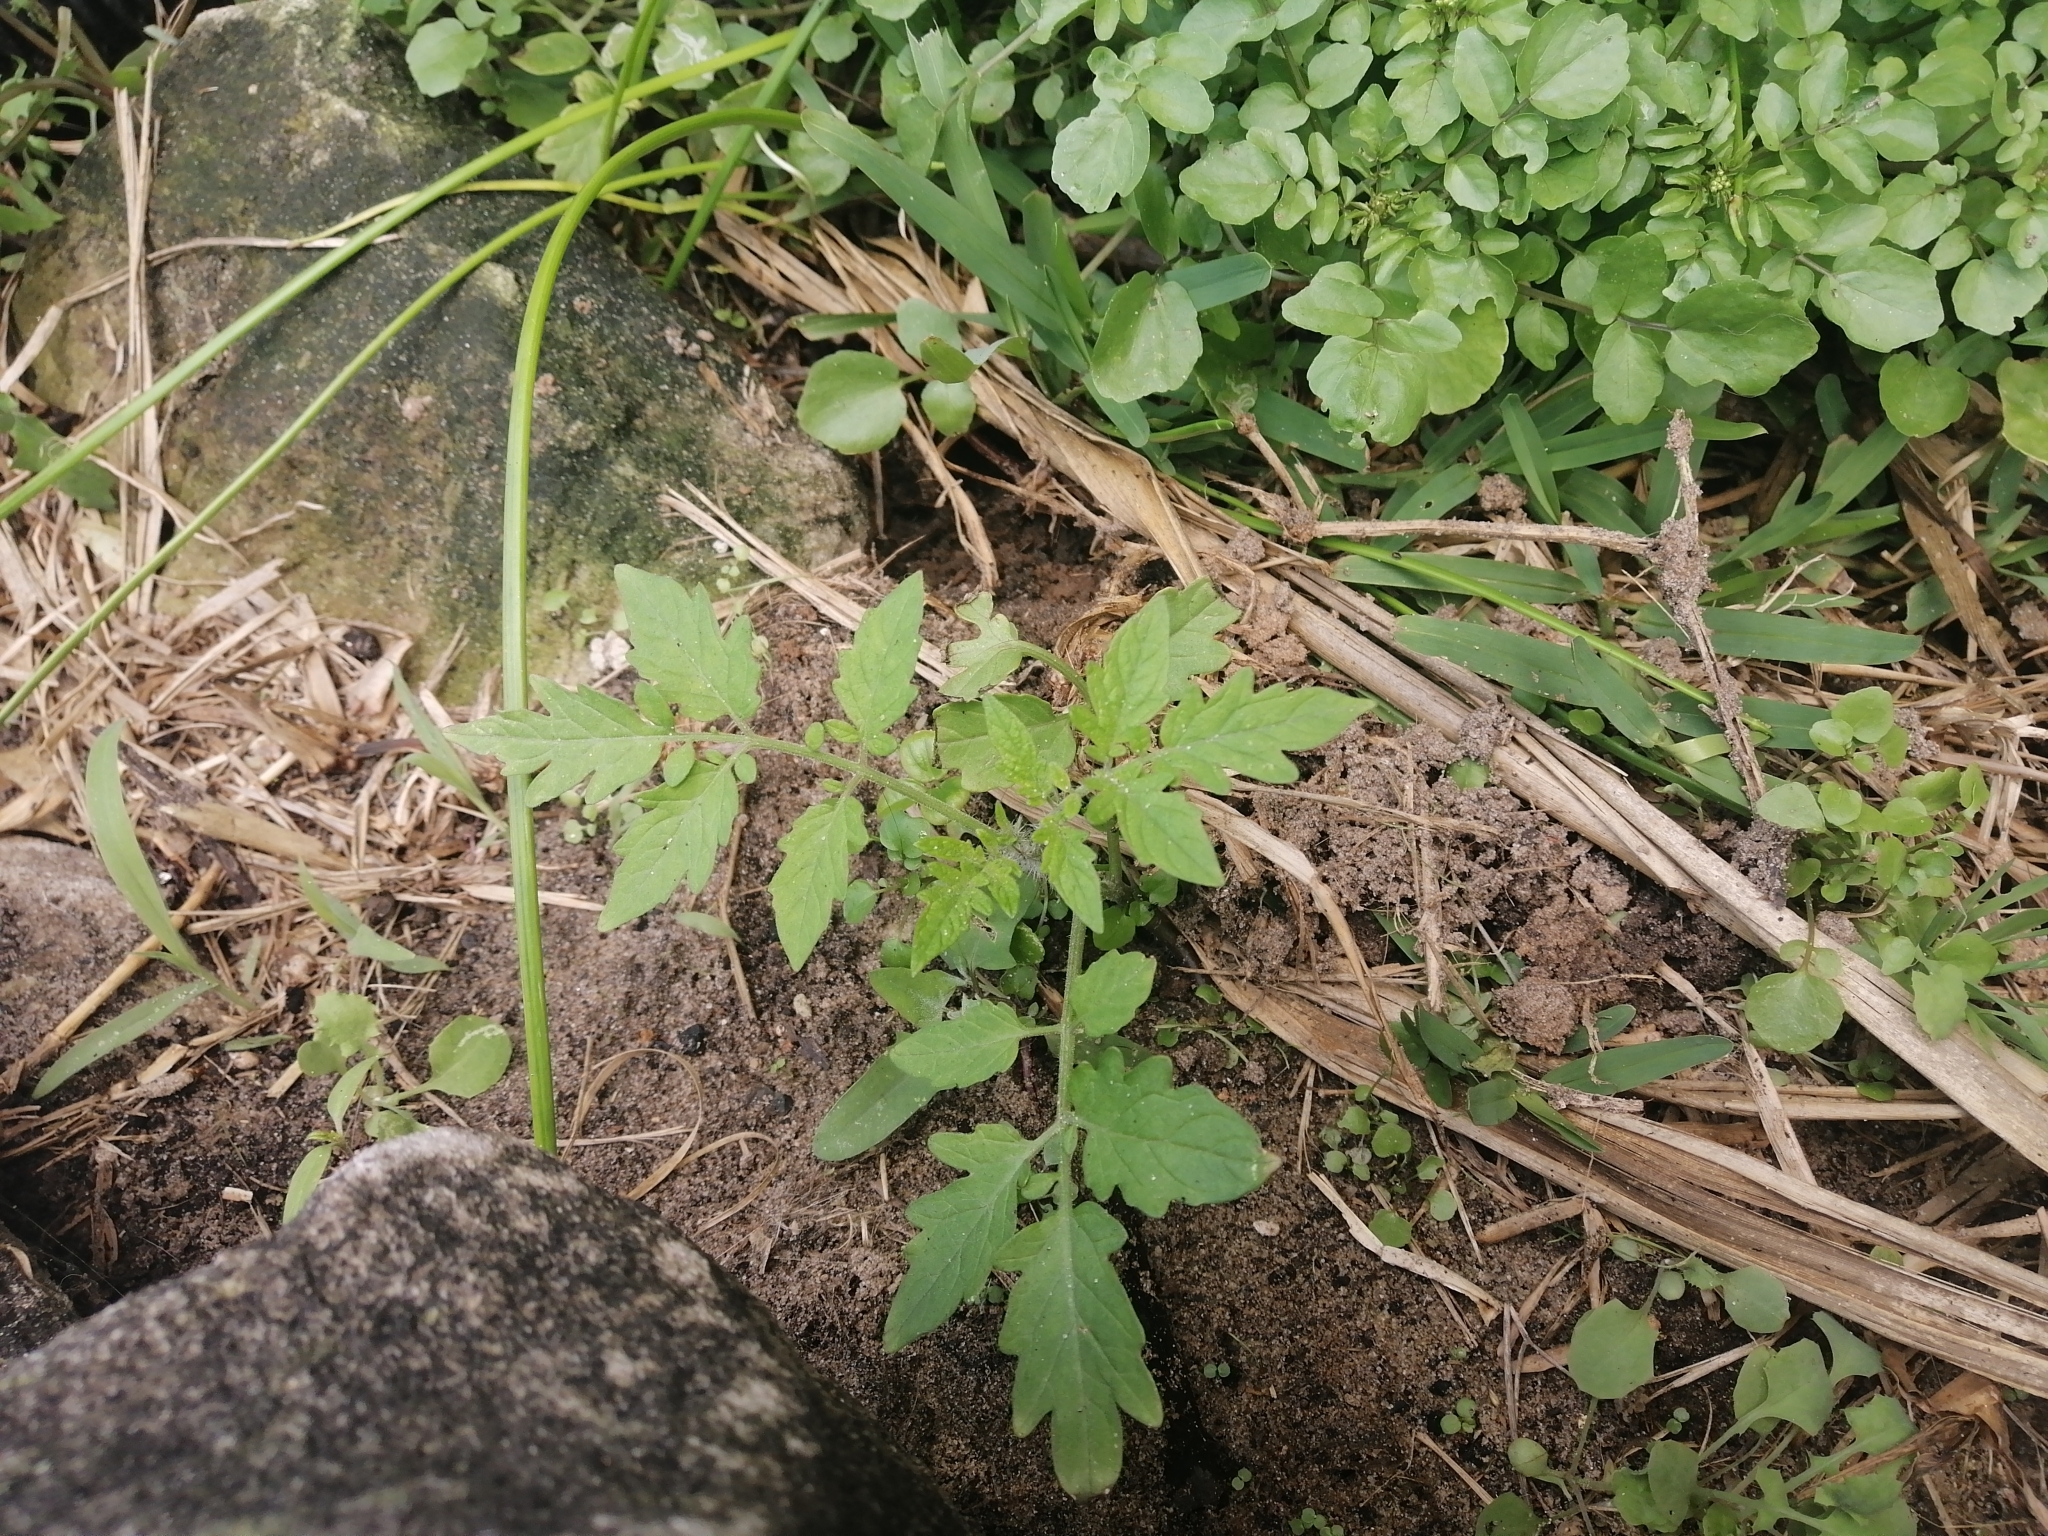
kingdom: Plantae
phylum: Tracheophyta
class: Magnoliopsida
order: Solanales
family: Solanaceae
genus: Solanum
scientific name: Solanum lycopersicum
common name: Garden tomato
